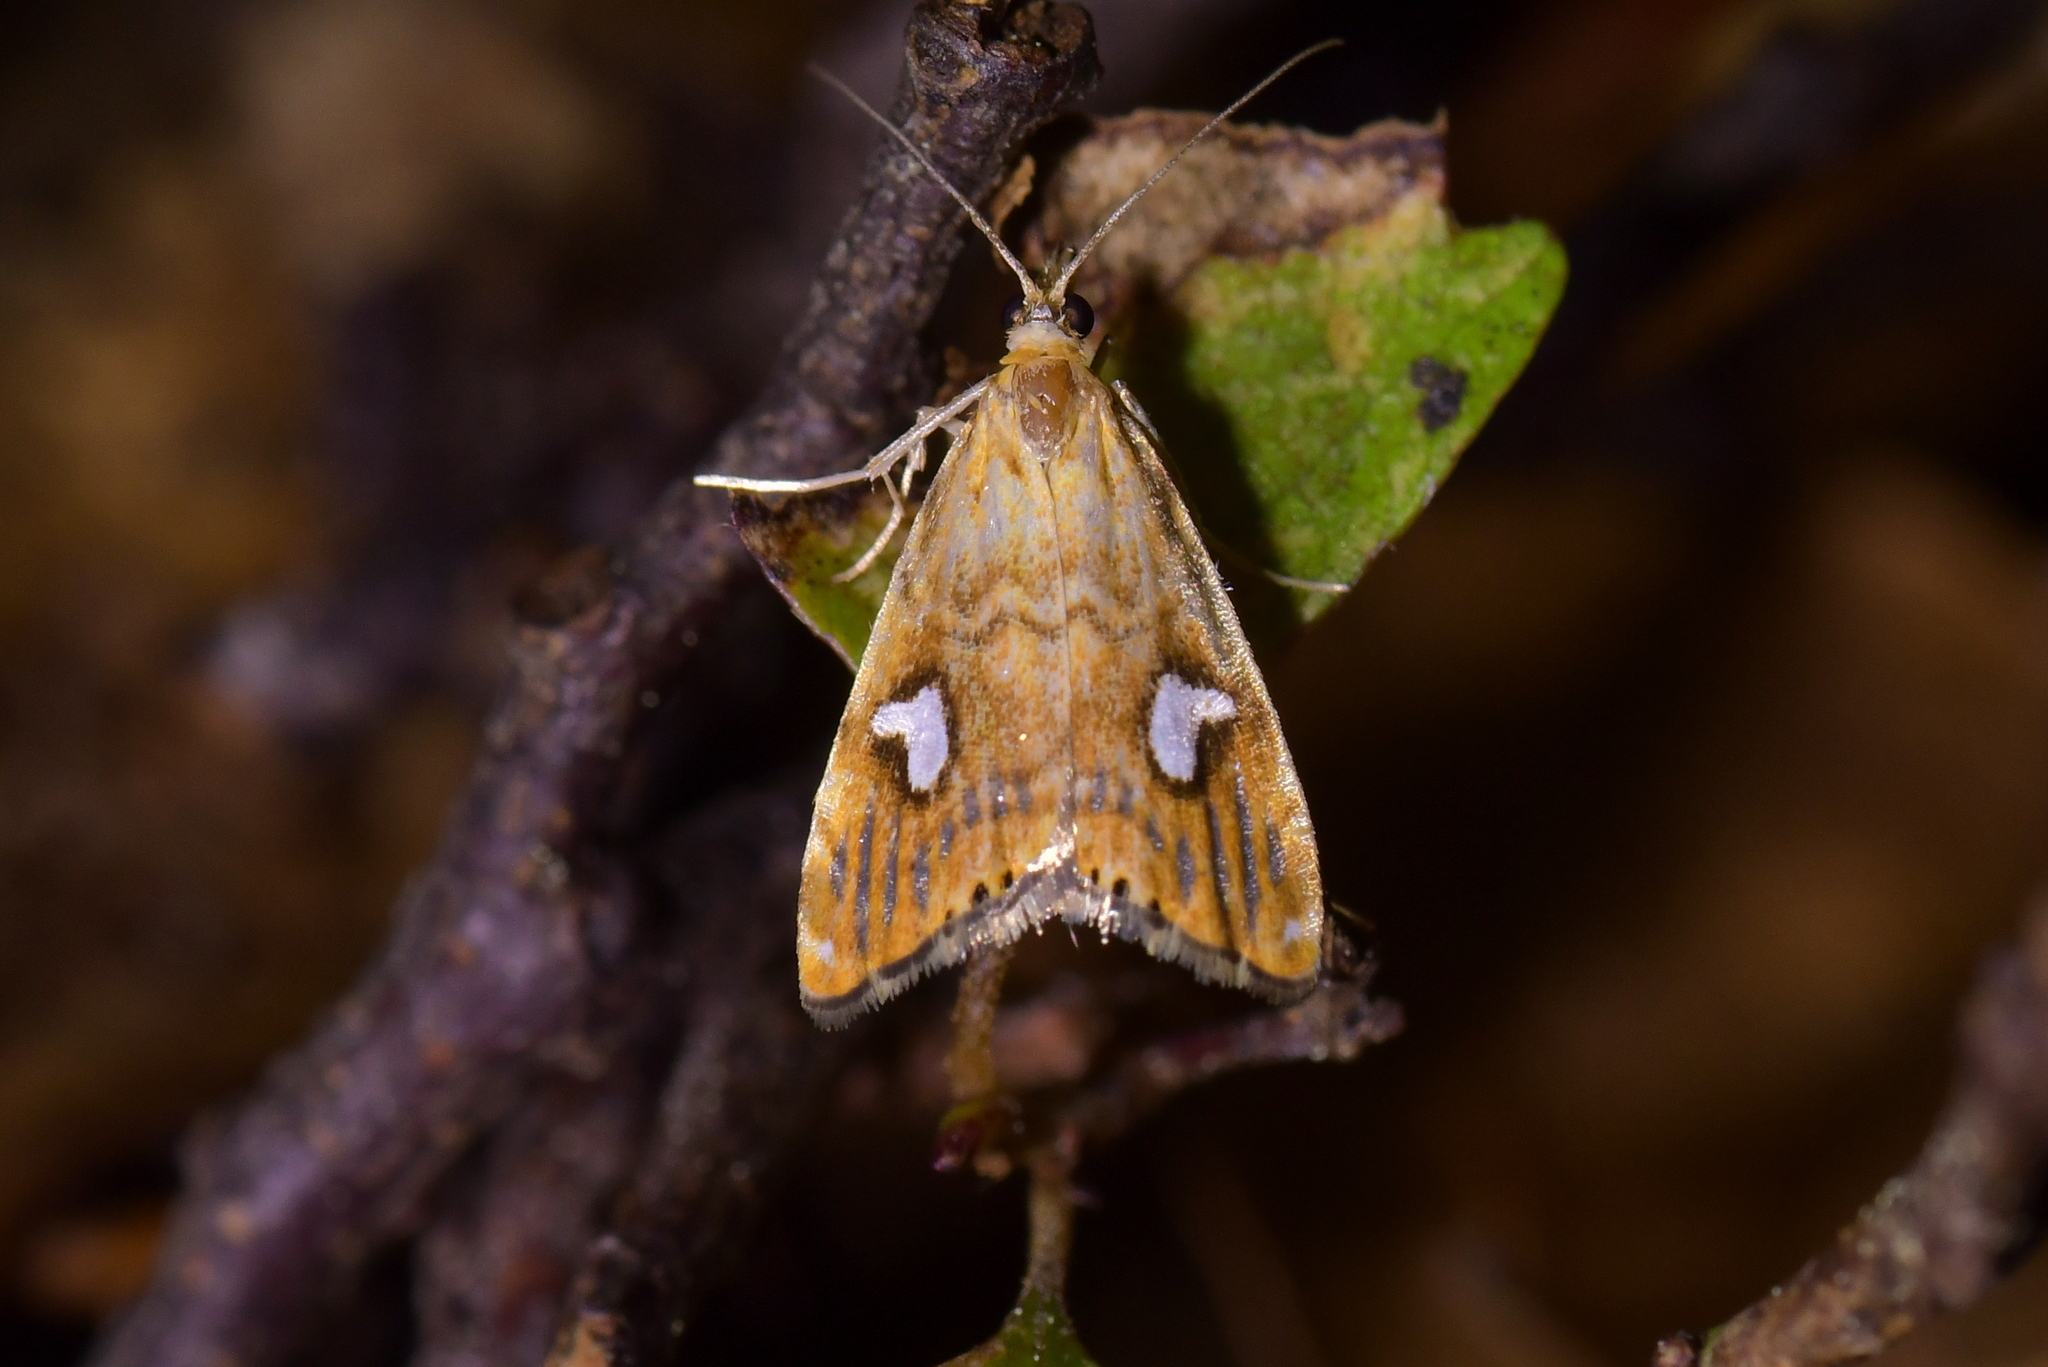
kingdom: Animalia
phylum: Arthropoda
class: Insecta
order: Lepidoptera
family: Crambidae
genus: Glaucocharis
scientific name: Glaucocharis leucoxantha
